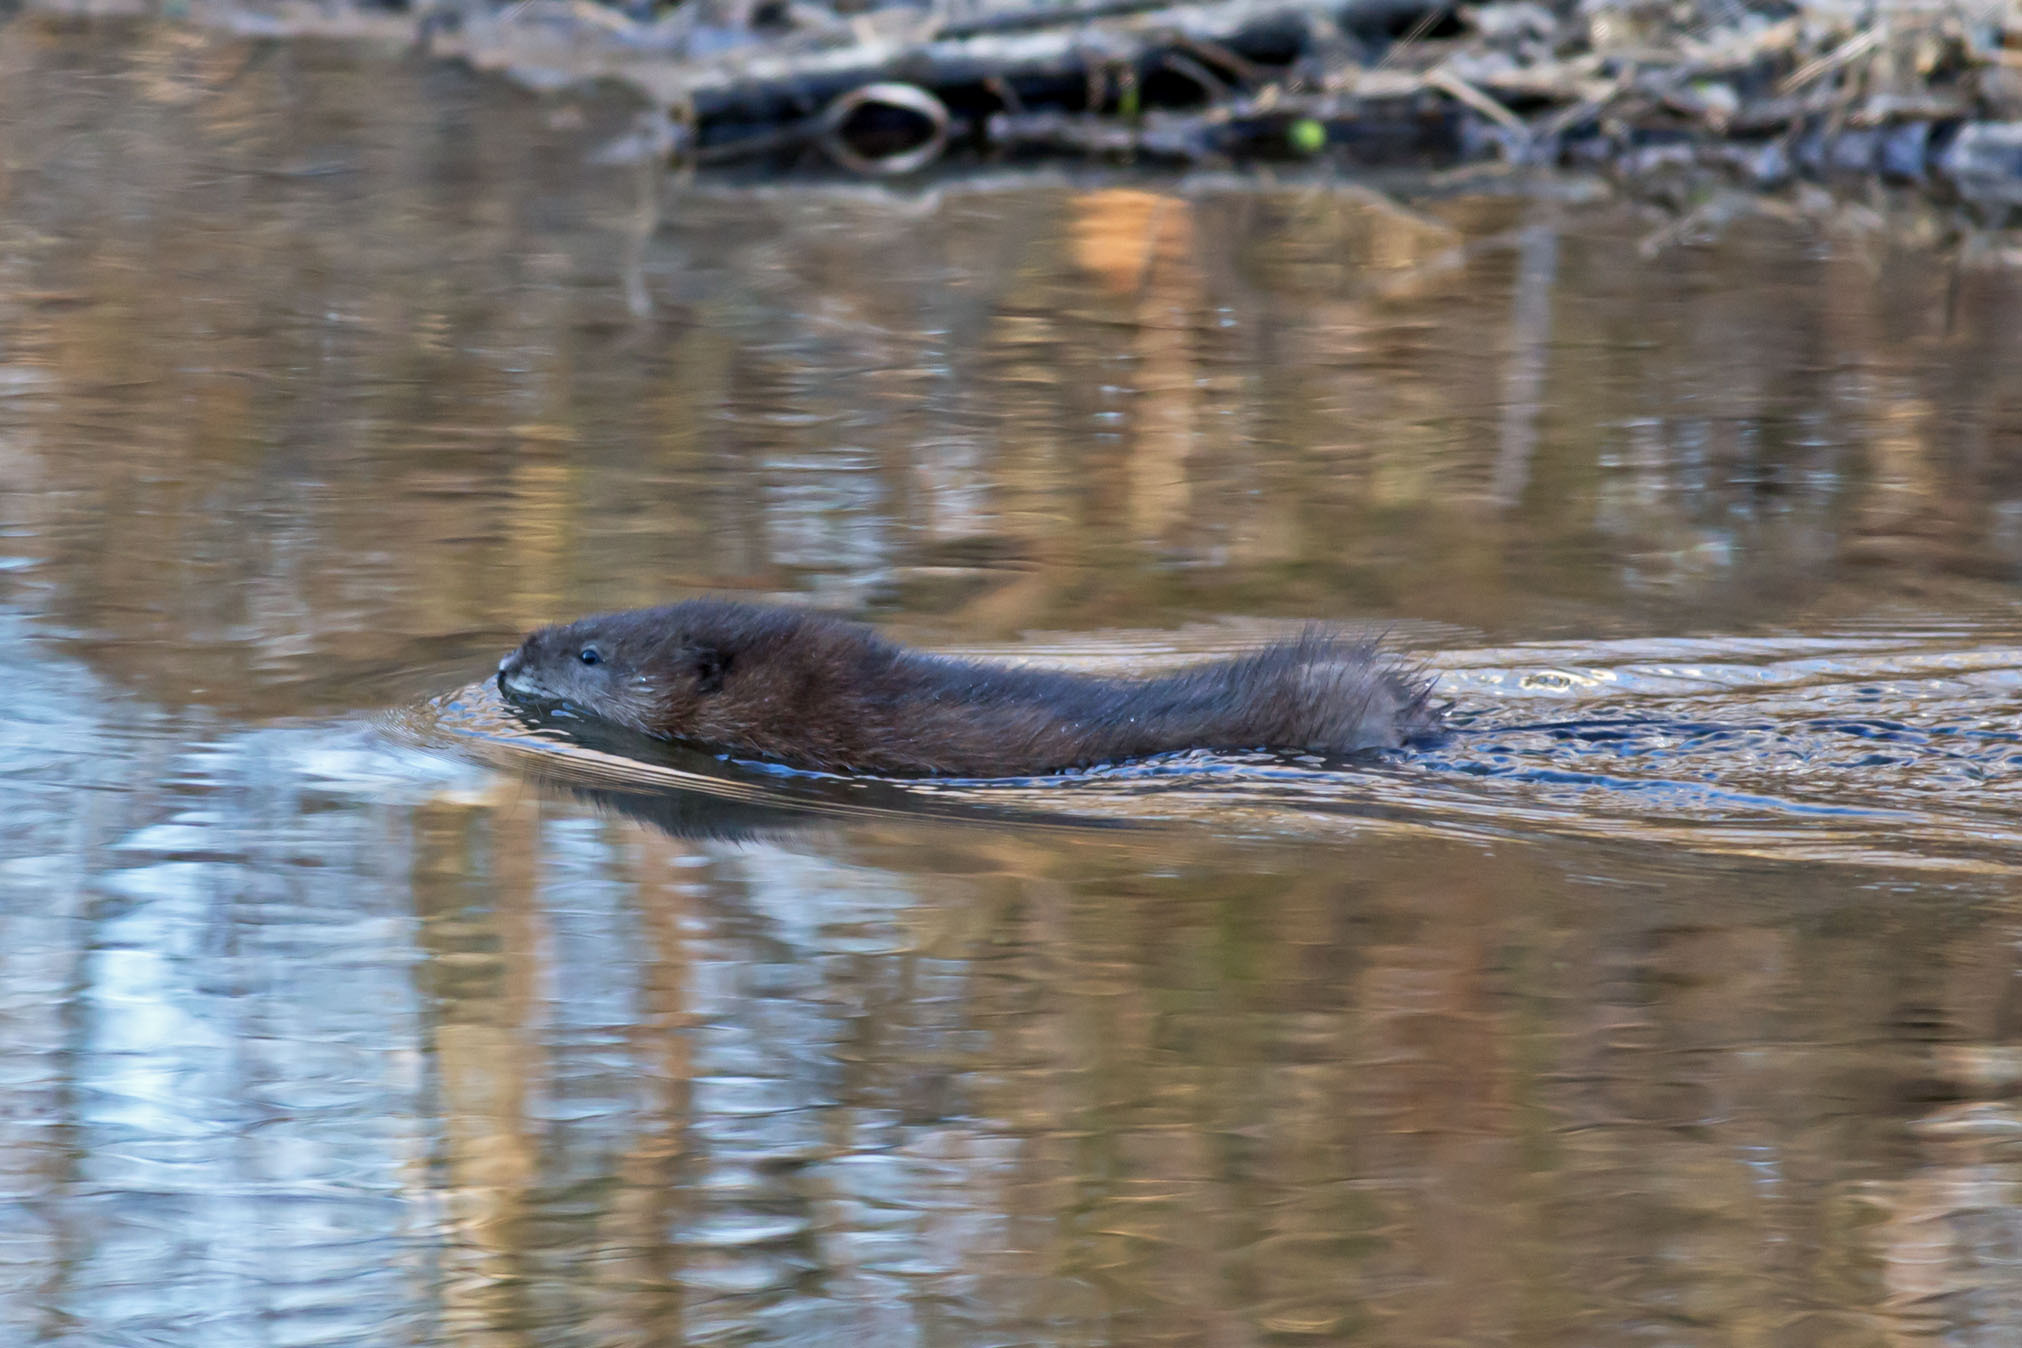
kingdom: Animalia
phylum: Chordata
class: Mammalia
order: Rodentia
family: Cricetidae
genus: Ondatra
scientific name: Ondatra zibethicus
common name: Muskrat
